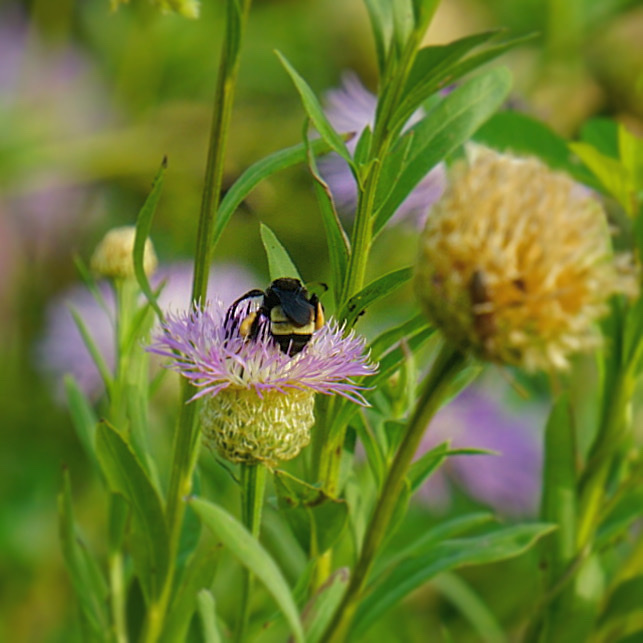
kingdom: Animalia
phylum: Arthropoda
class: Insecta
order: Hymenoptera
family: Apidae
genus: Bombus
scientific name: Bombus pensylvanicus
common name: Bumble bee
